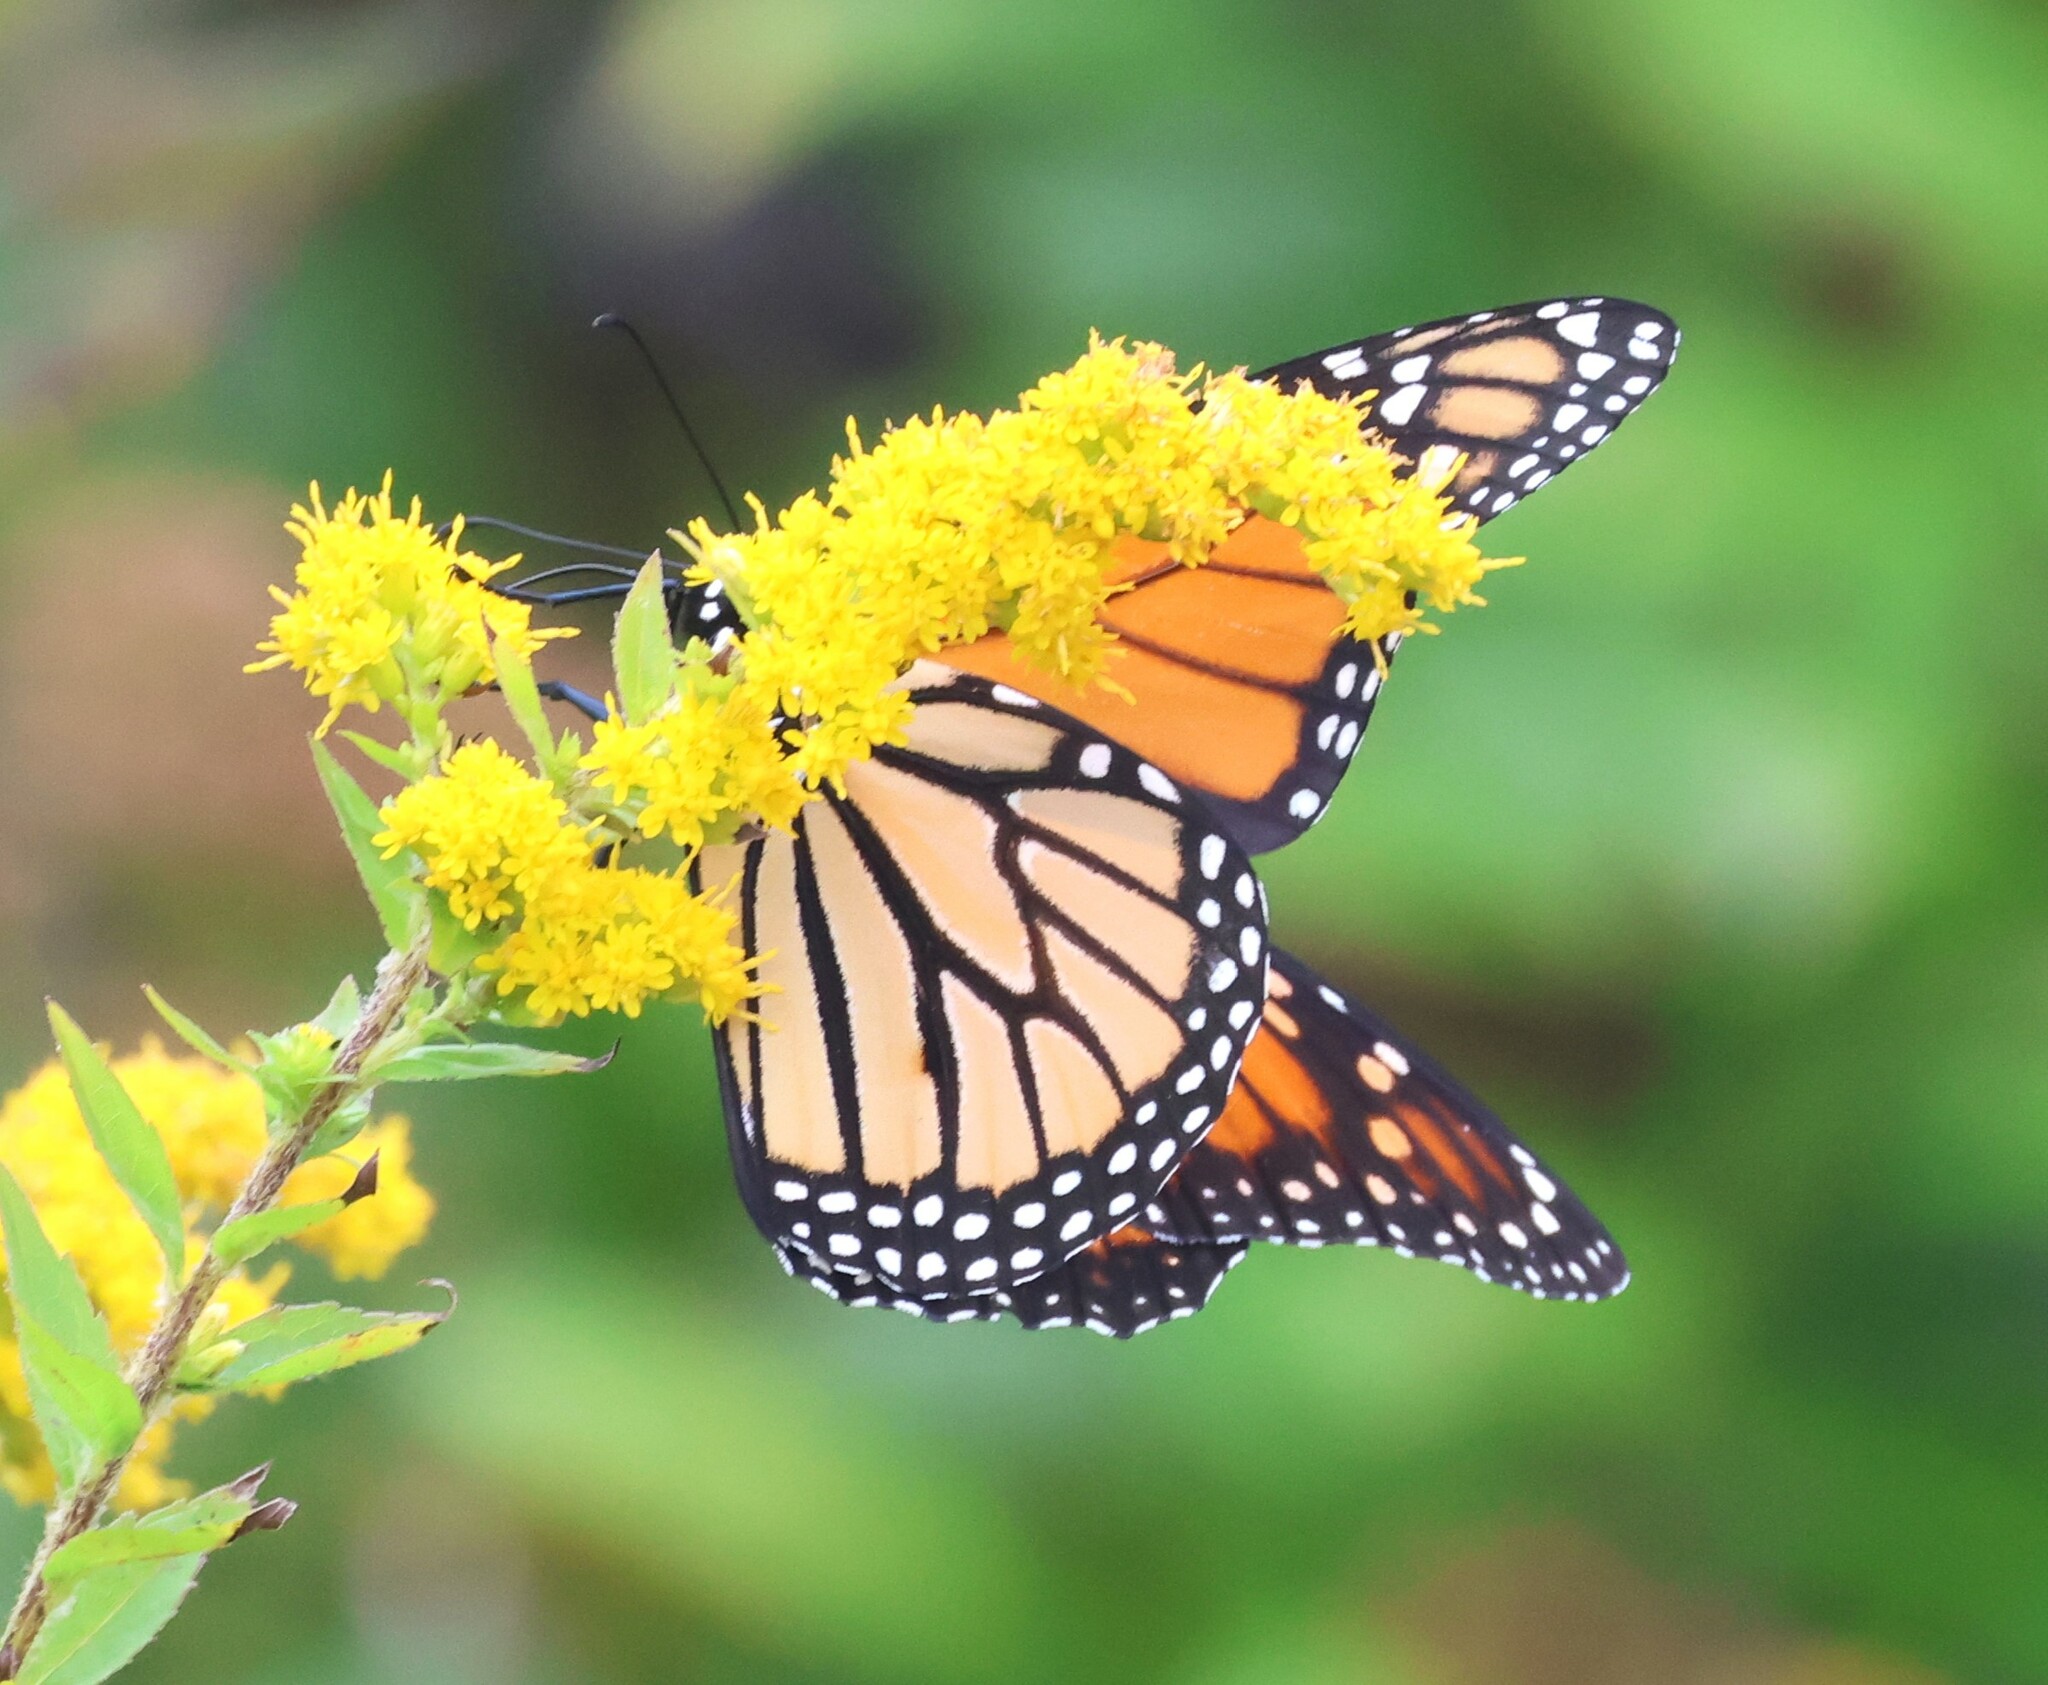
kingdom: Animalia
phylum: Arthropoda
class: Insecta
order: Lepidoptera
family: Nymphalidae
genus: Danaus
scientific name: Danaus plexippus
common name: Monarch
